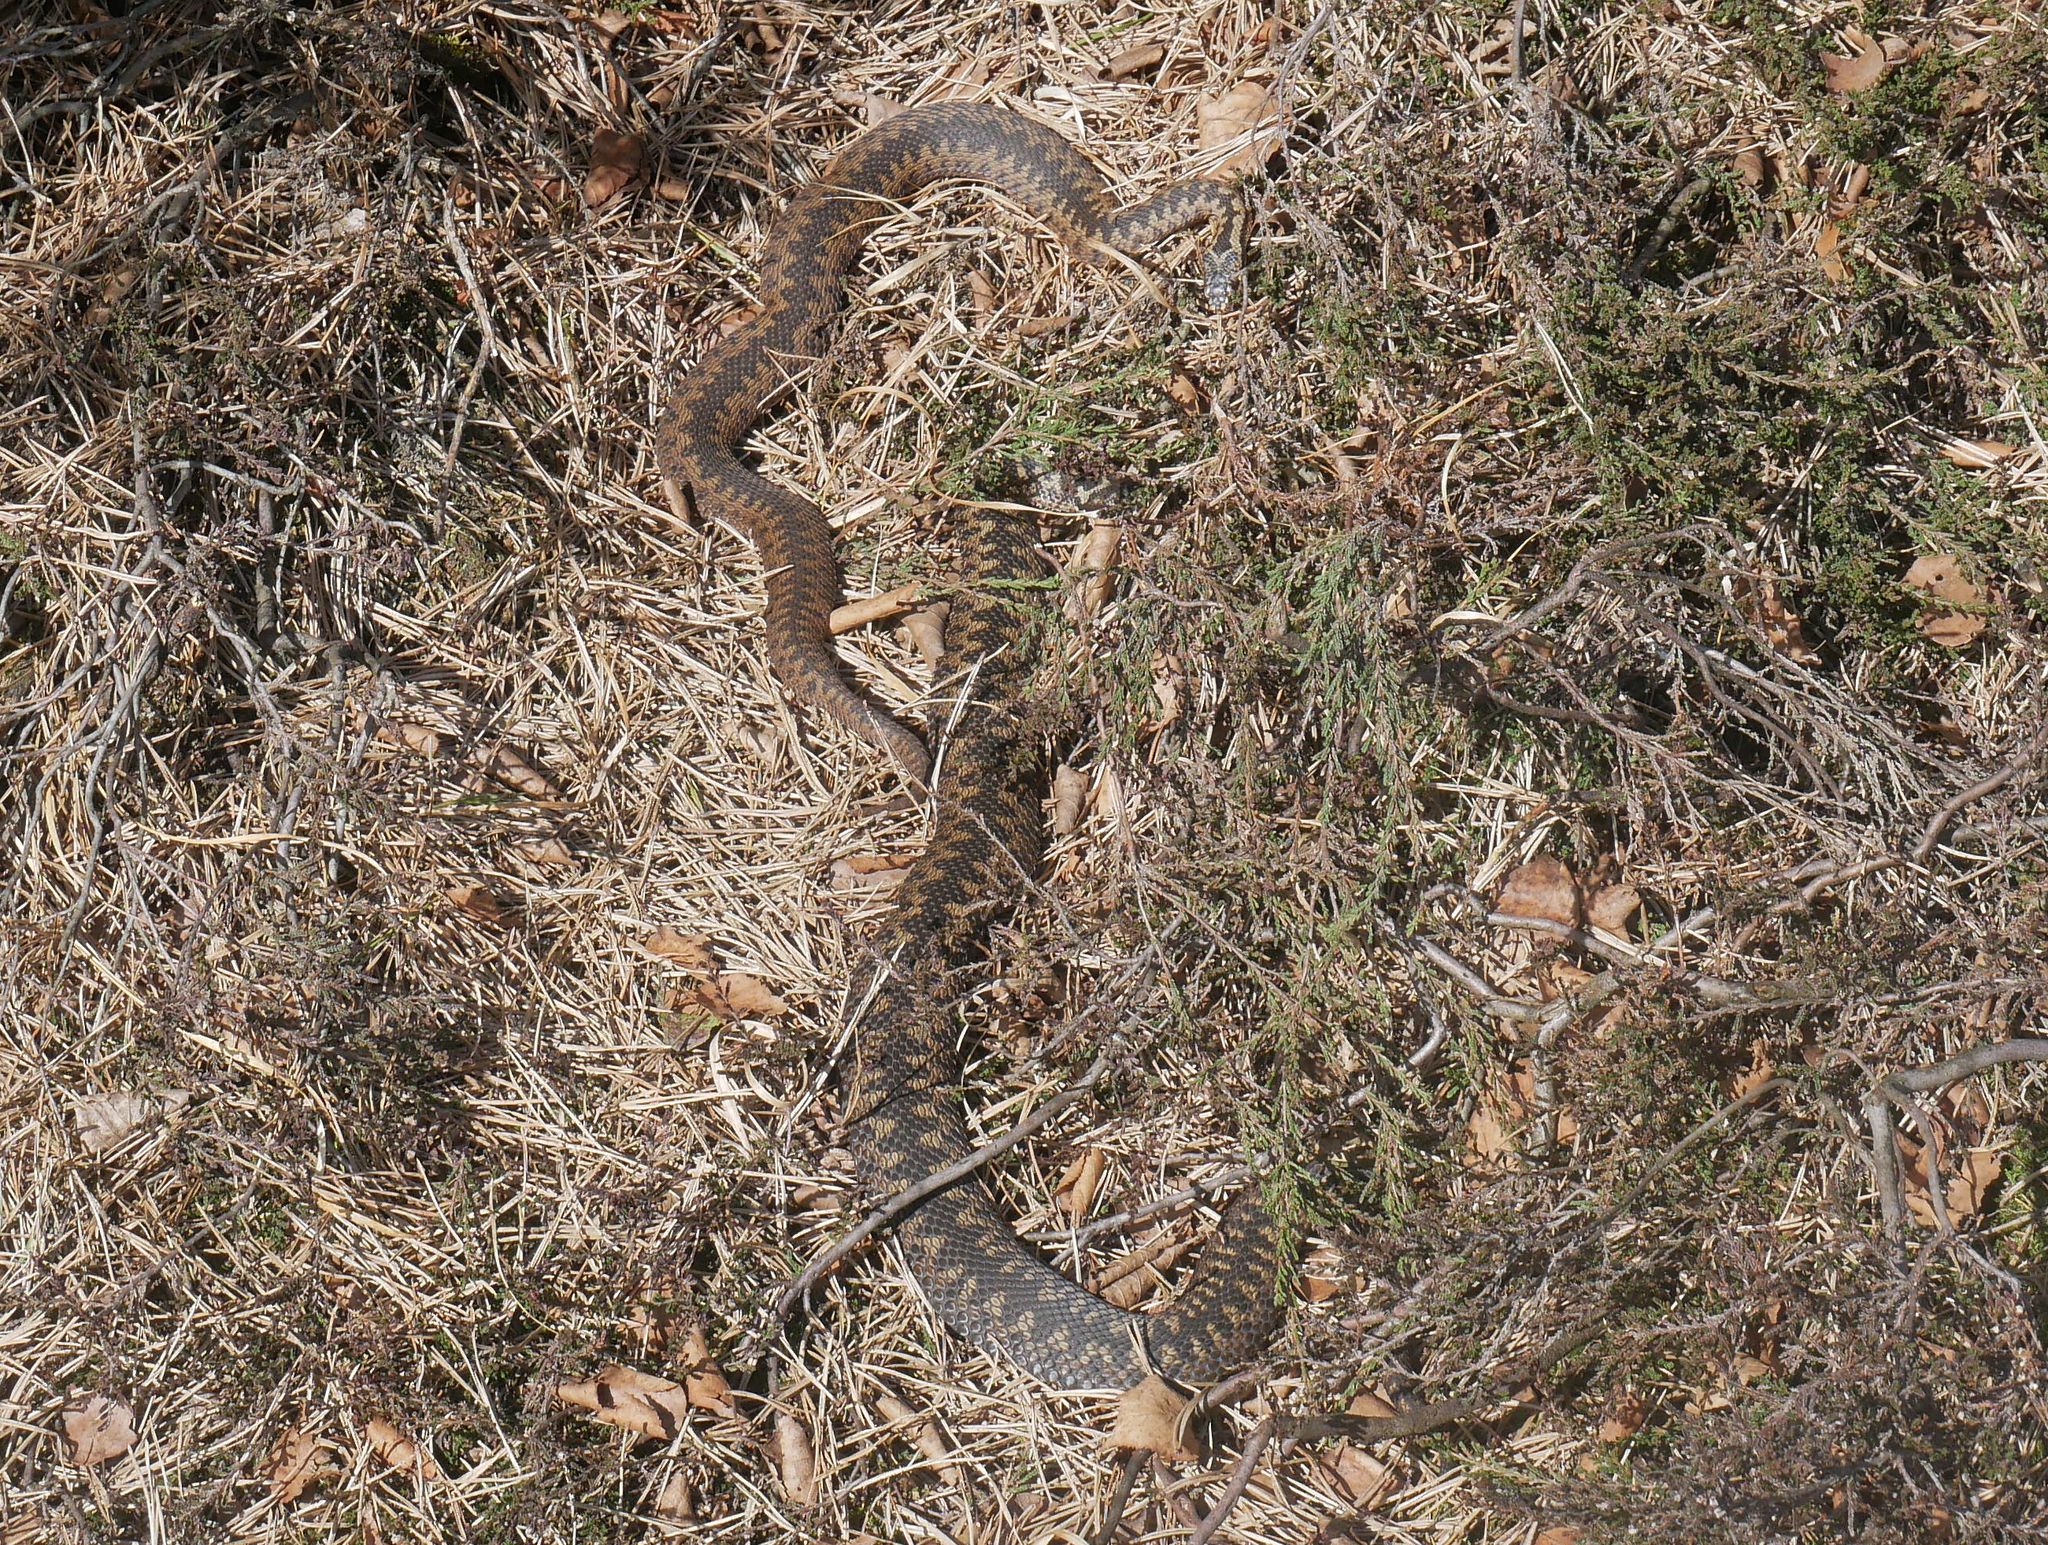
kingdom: Animalia
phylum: Chordata
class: Squamata
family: Viperidae
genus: Vipera
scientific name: Vipera berus
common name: Adder
